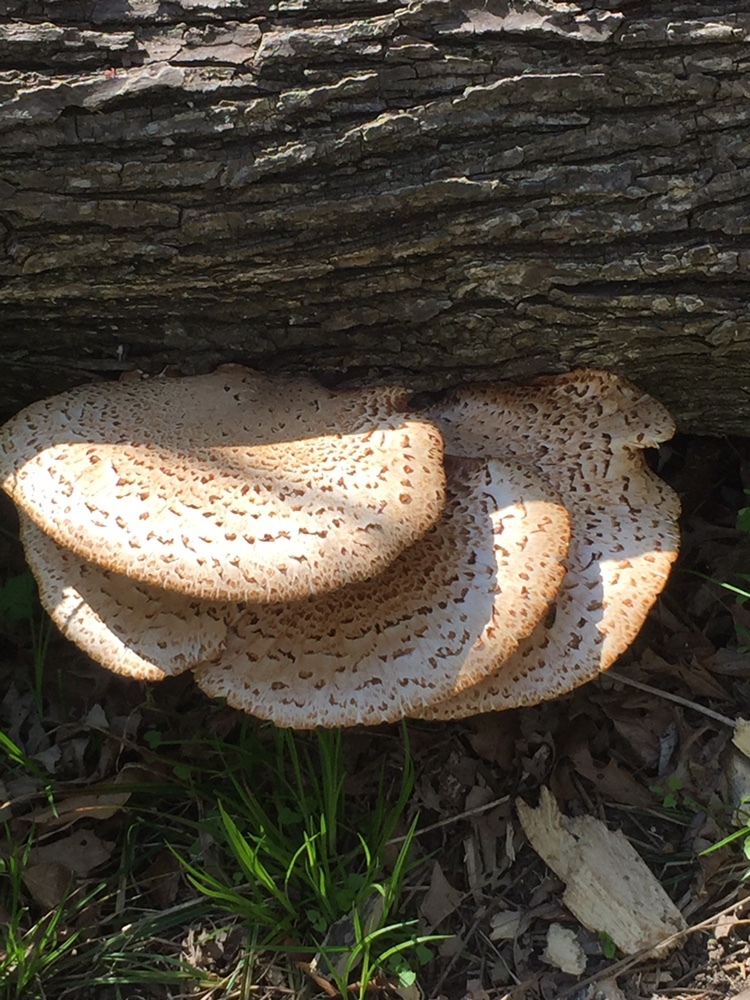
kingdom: Fungi
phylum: Basidiomycota
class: Agaricomycetes
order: Polyporales
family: Polyporaceae
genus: Cerioporus
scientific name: Cerioporus squamosus
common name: Dryad's saddle
